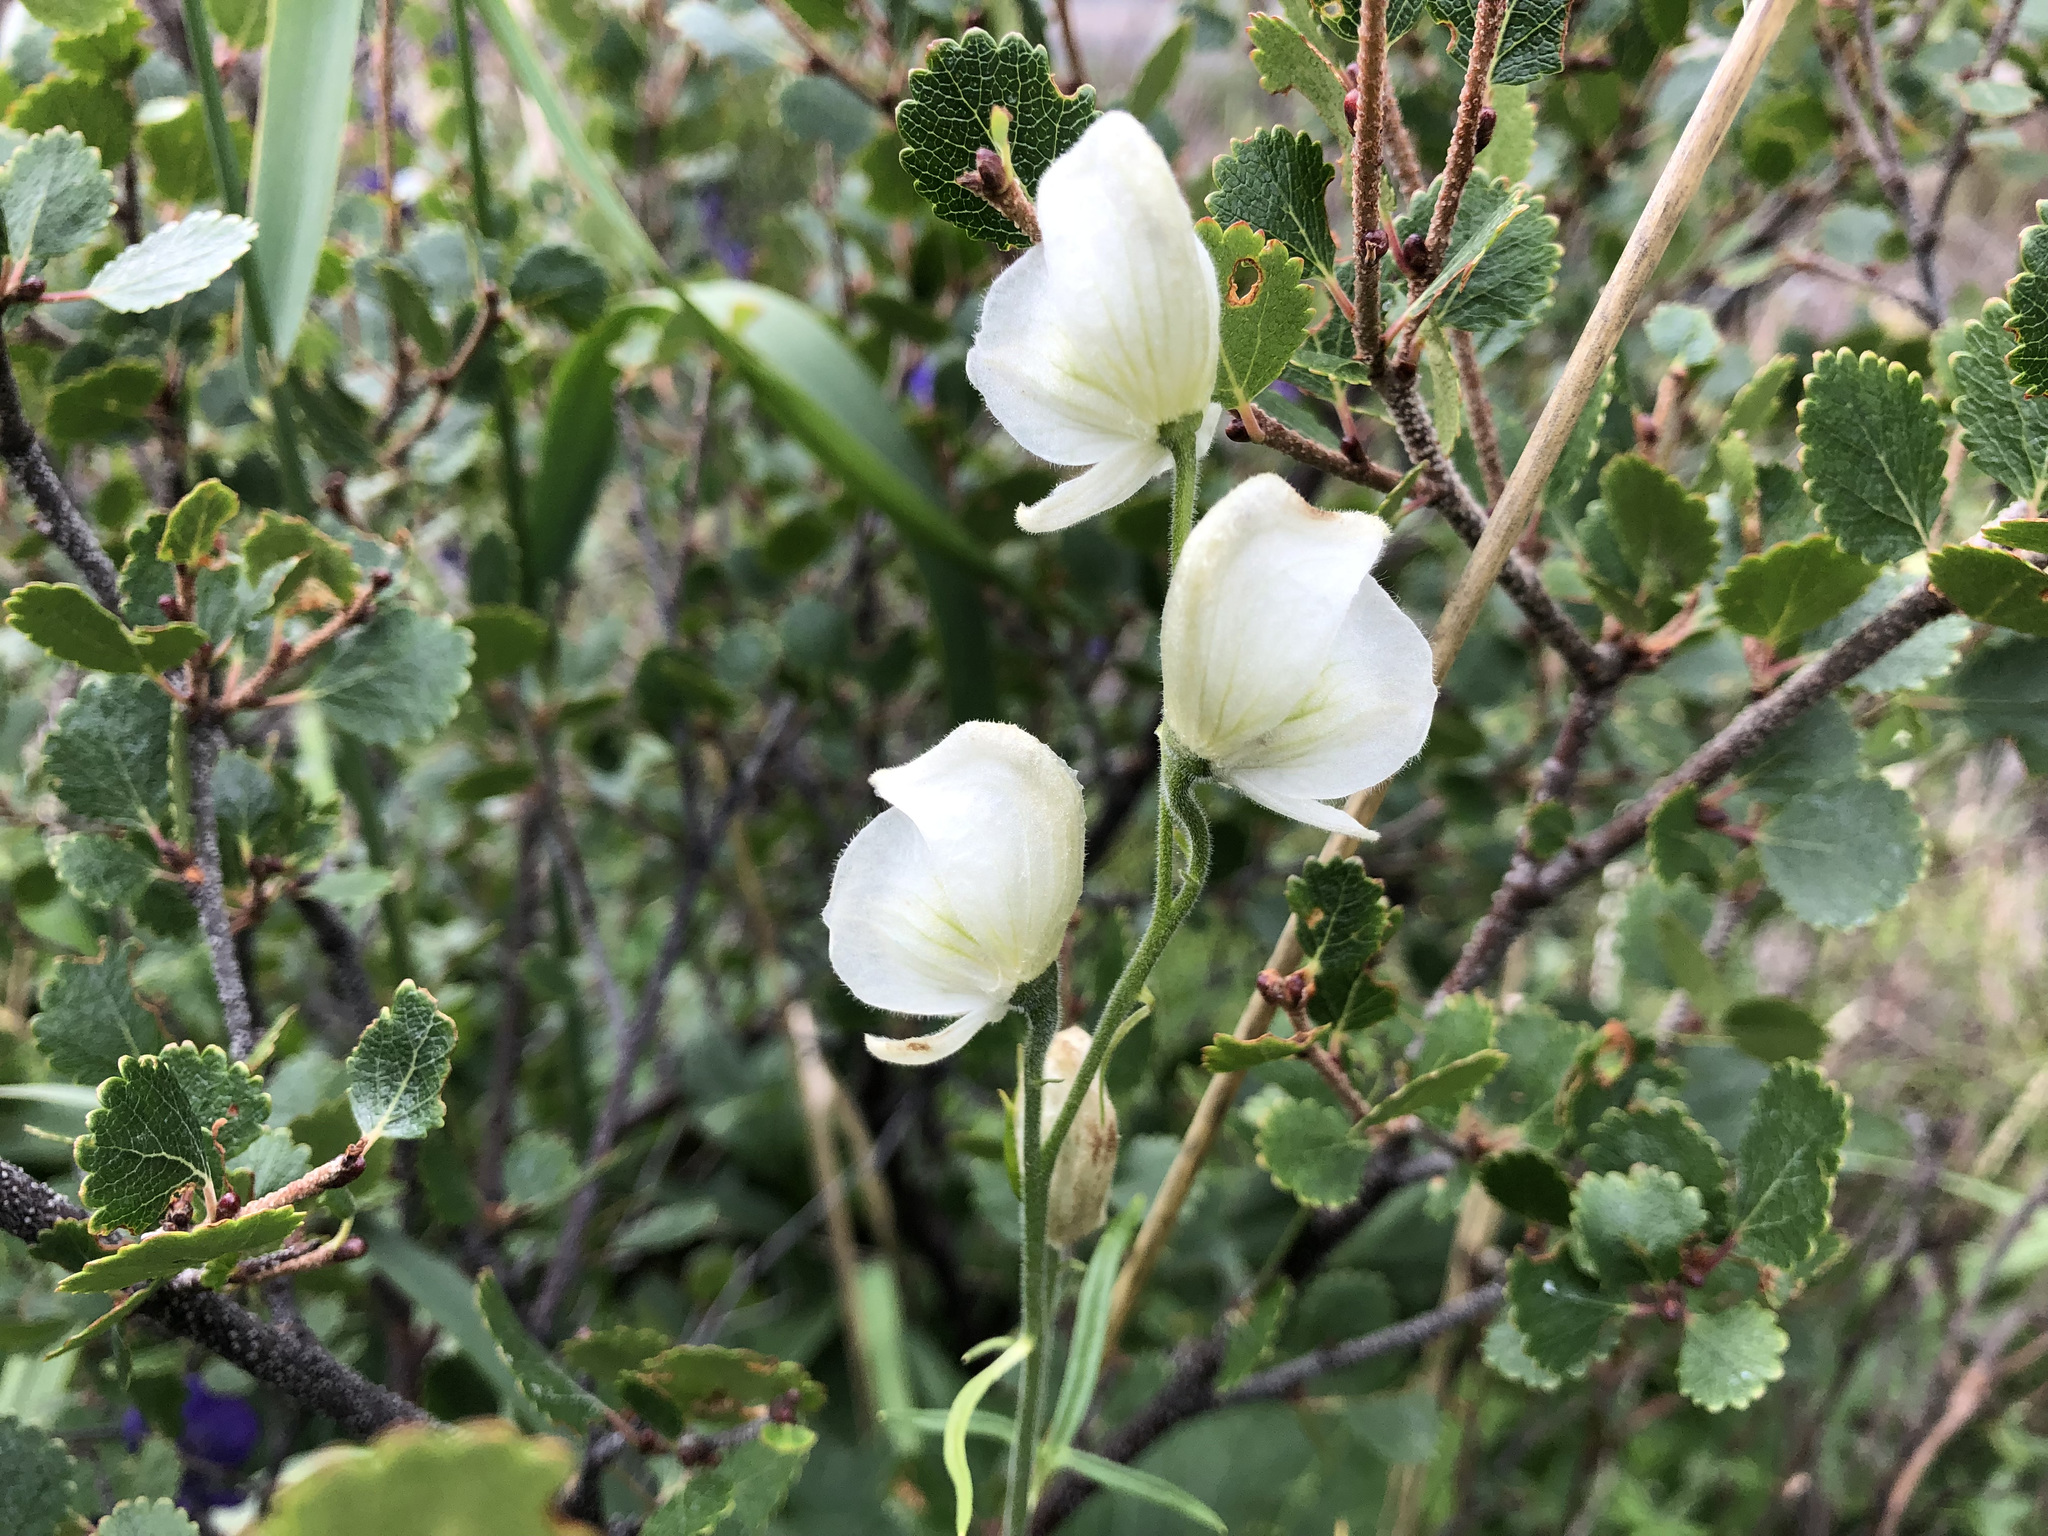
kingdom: Plantae
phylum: Tracheophyta
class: Magnoliopsida
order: Ranunculales
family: Ranunculaceae
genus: Aconitum
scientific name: Aconitum delphiniifolium
